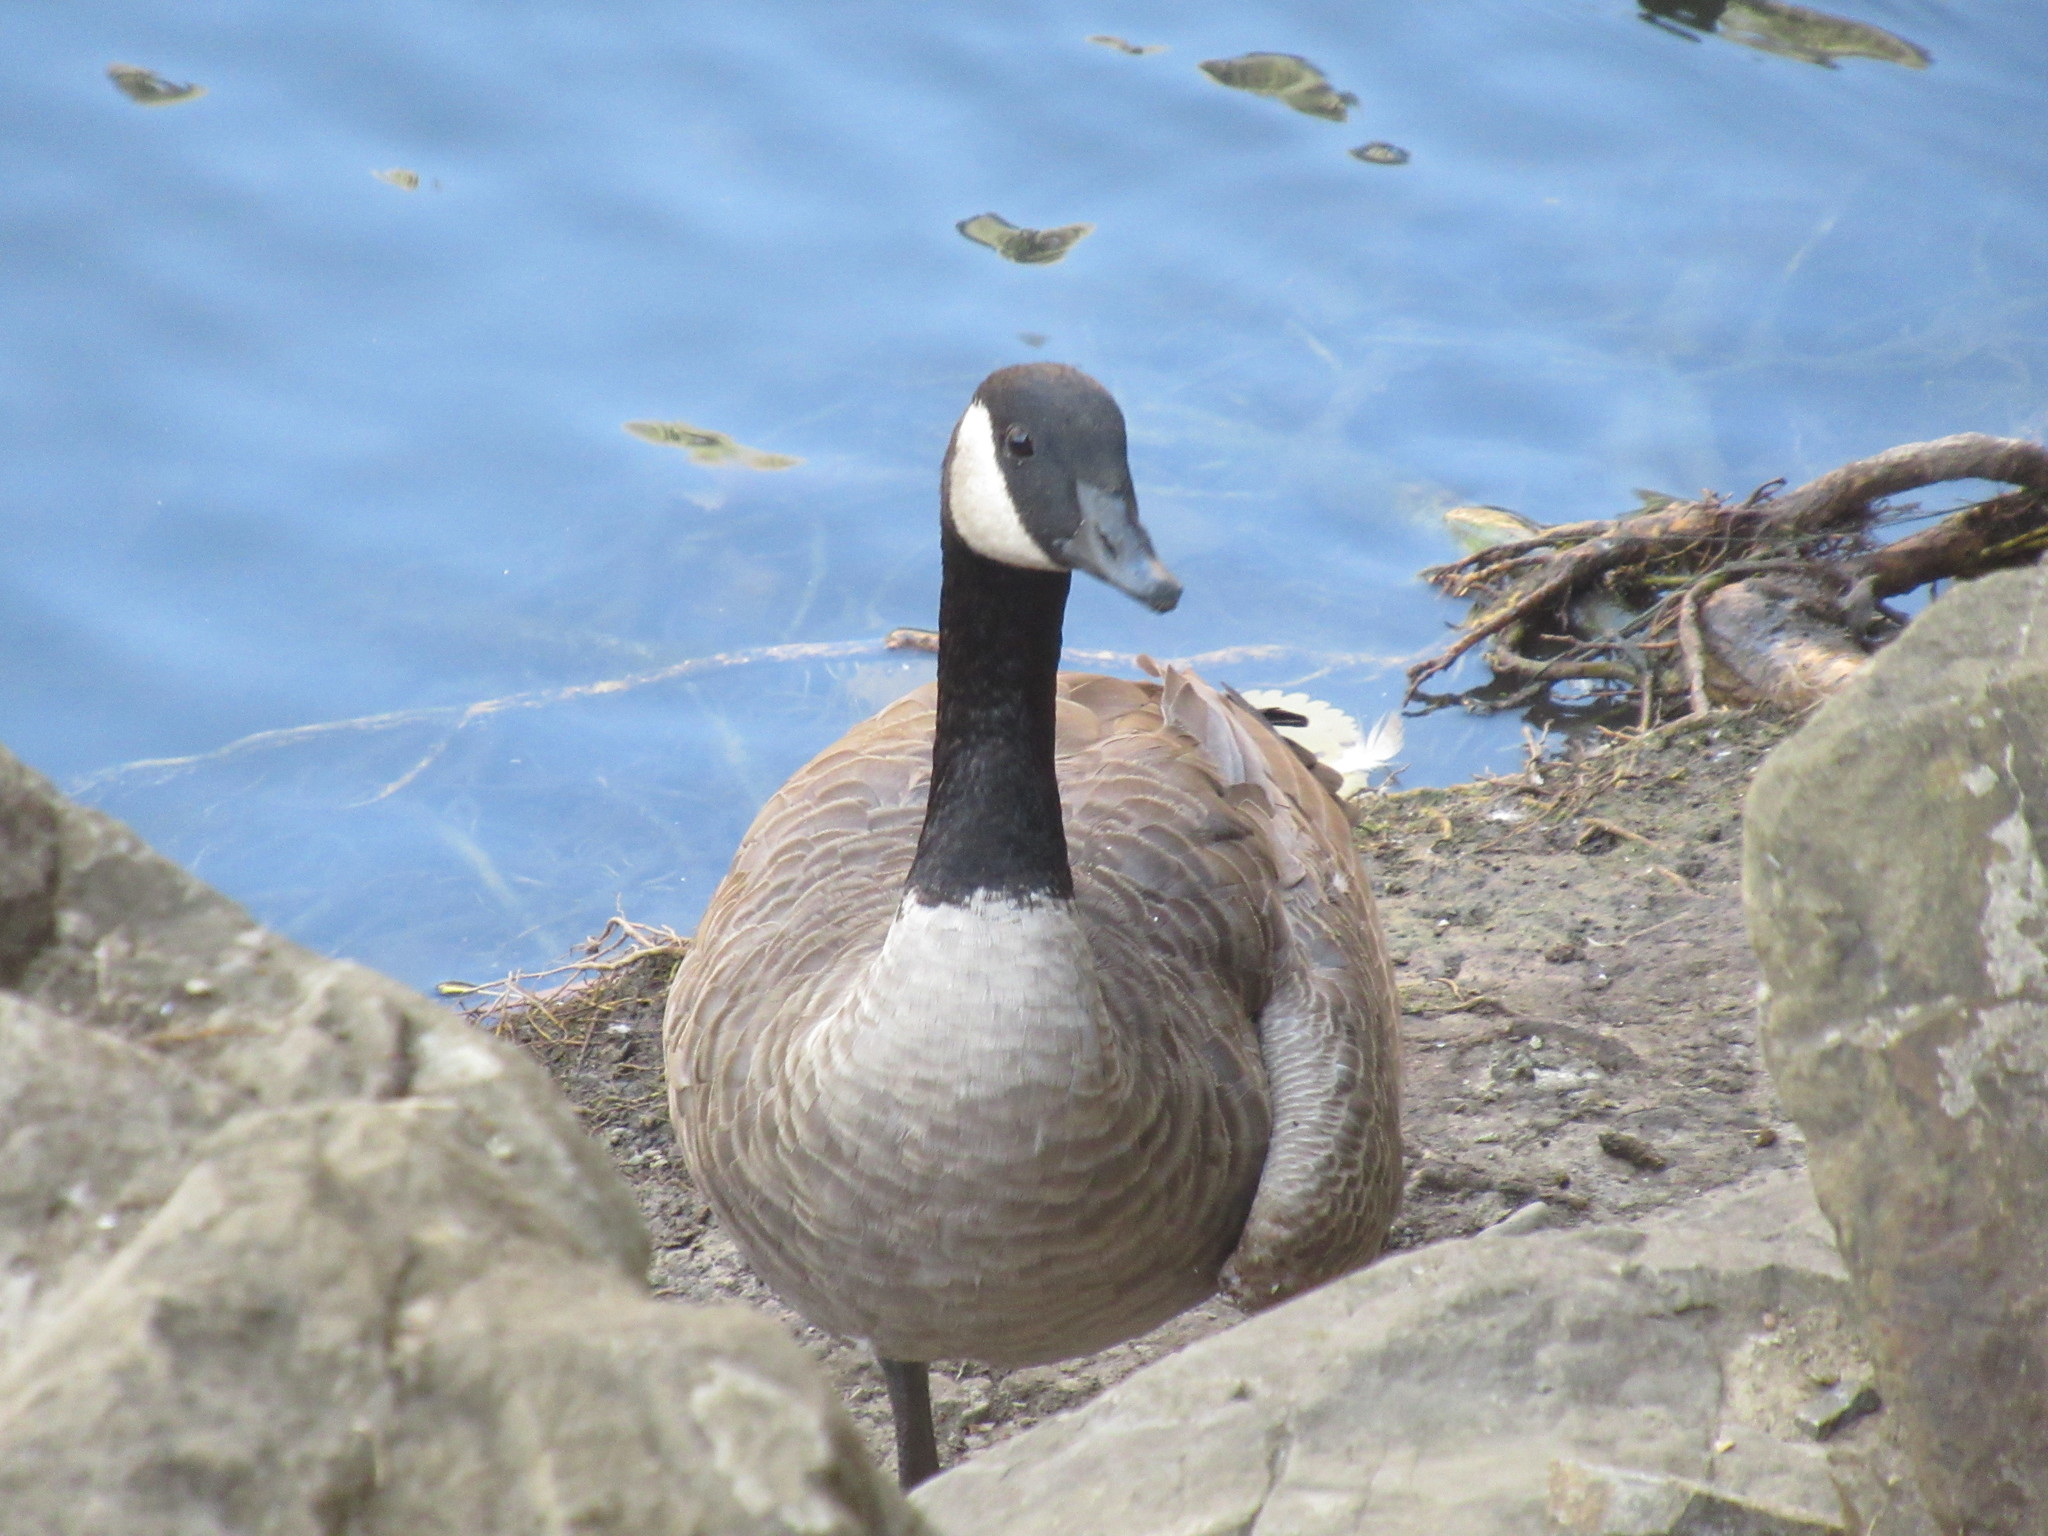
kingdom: Animalia
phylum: Chordata
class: Aves
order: Anseriformes
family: Anatidae
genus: Branta
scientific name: Branta canadensis
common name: Canada goose
